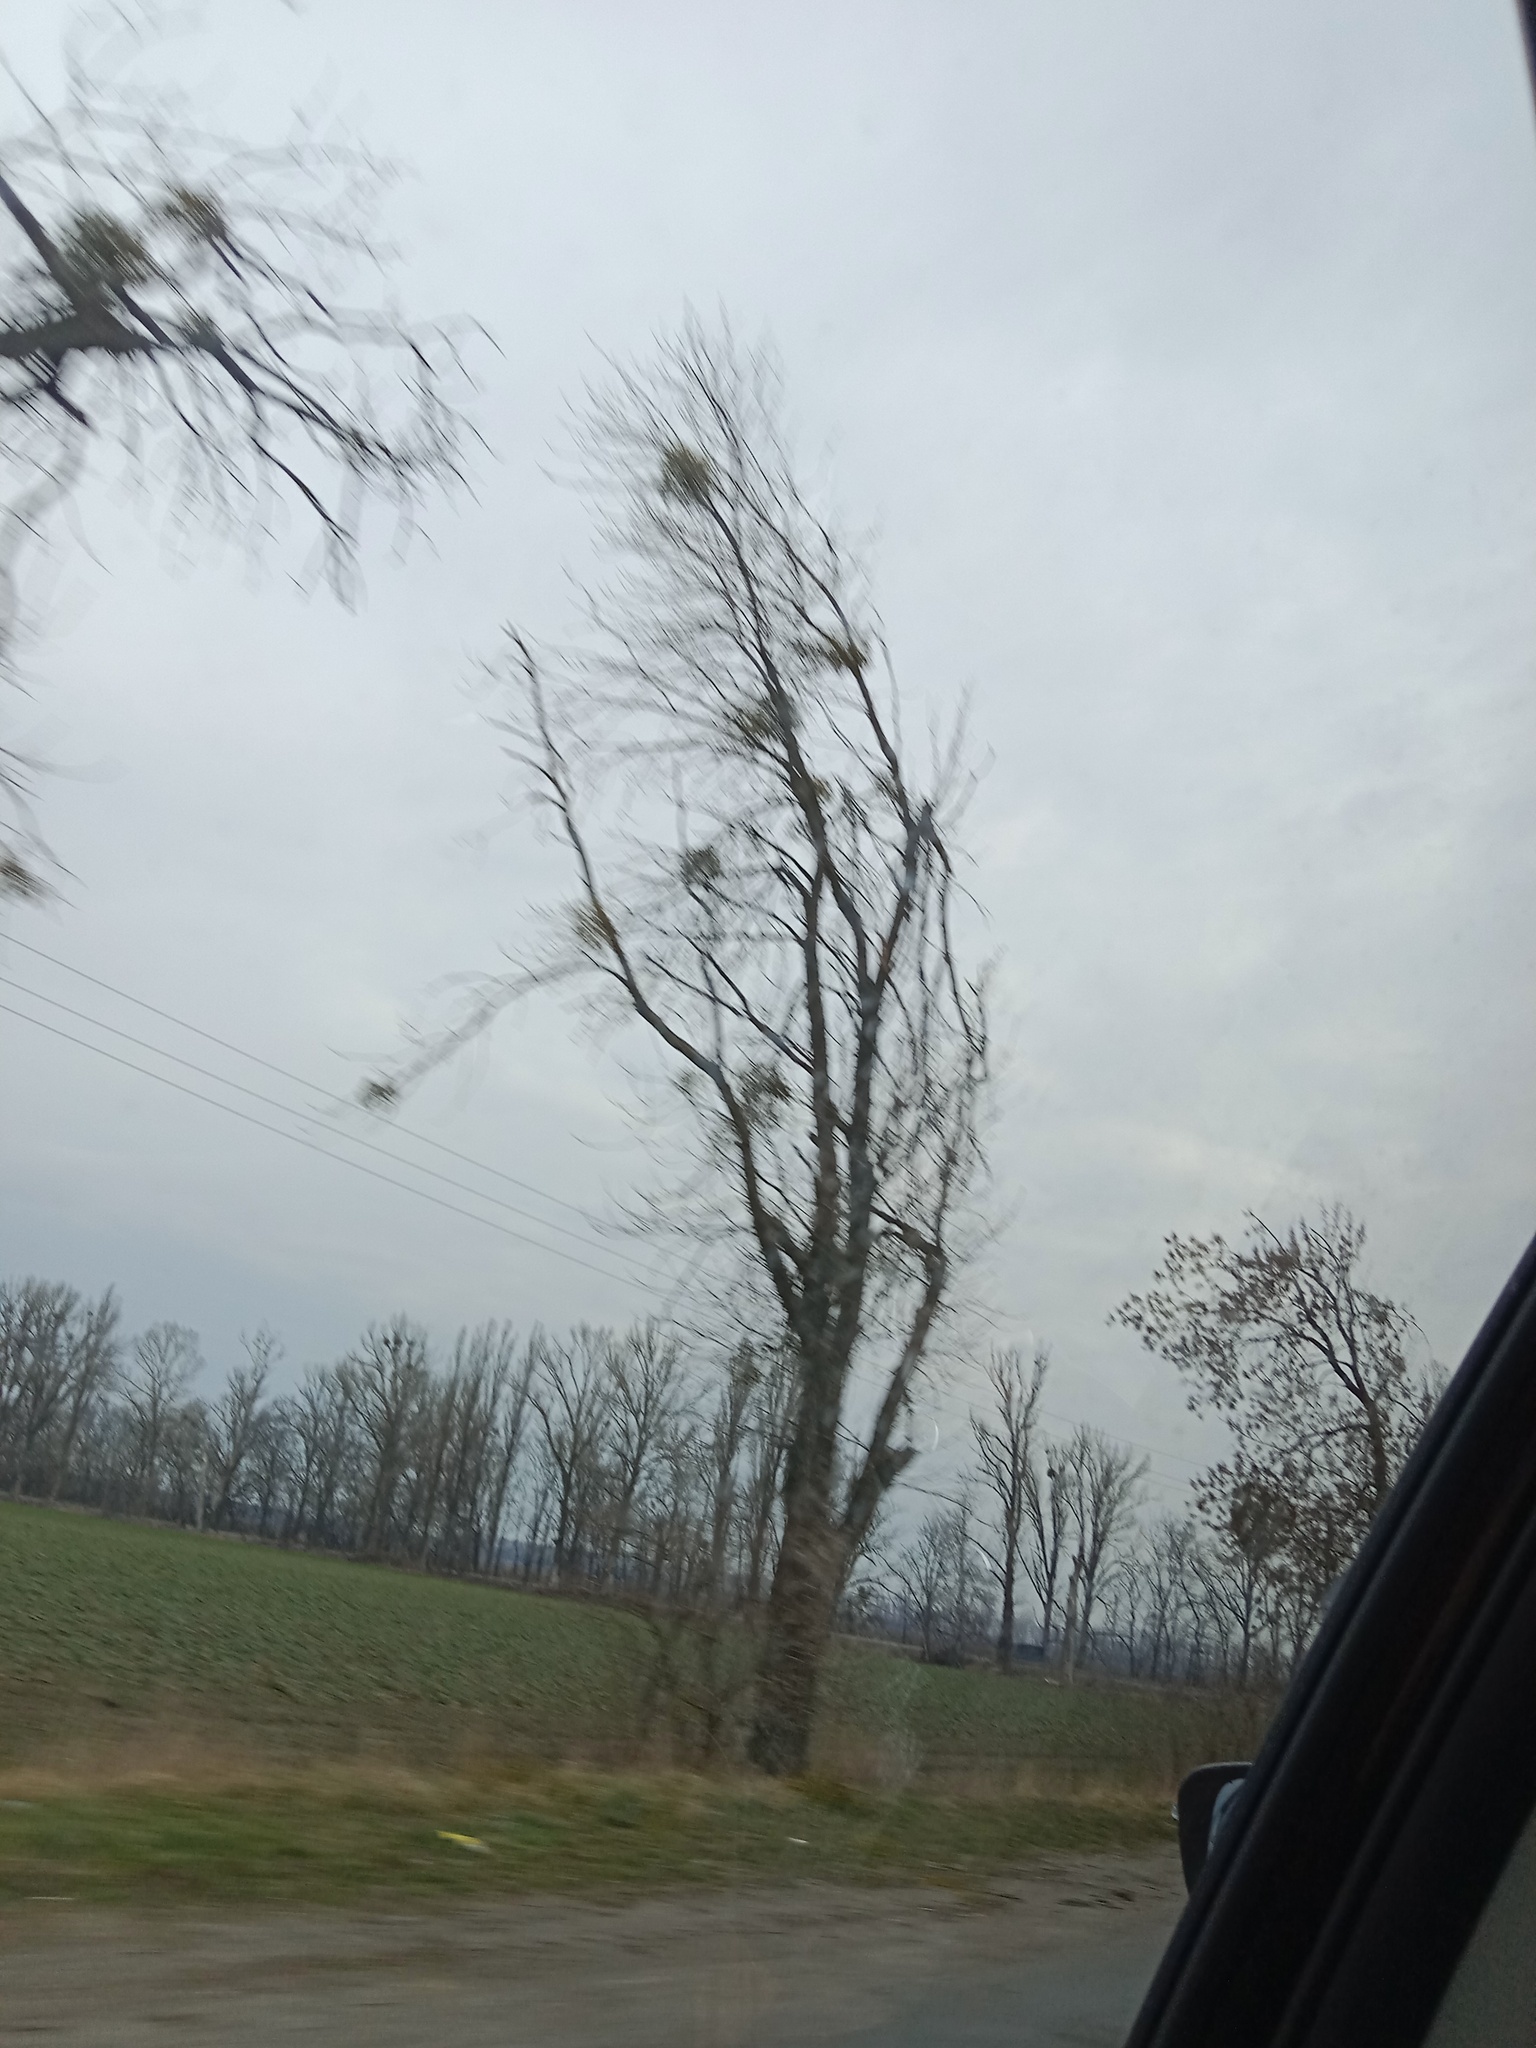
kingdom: Plantae
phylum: Tracheophyta
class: Magnoliopsida
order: Santalales
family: Viscaceae
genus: Viscum
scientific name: Viscum album
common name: Mistletoe
